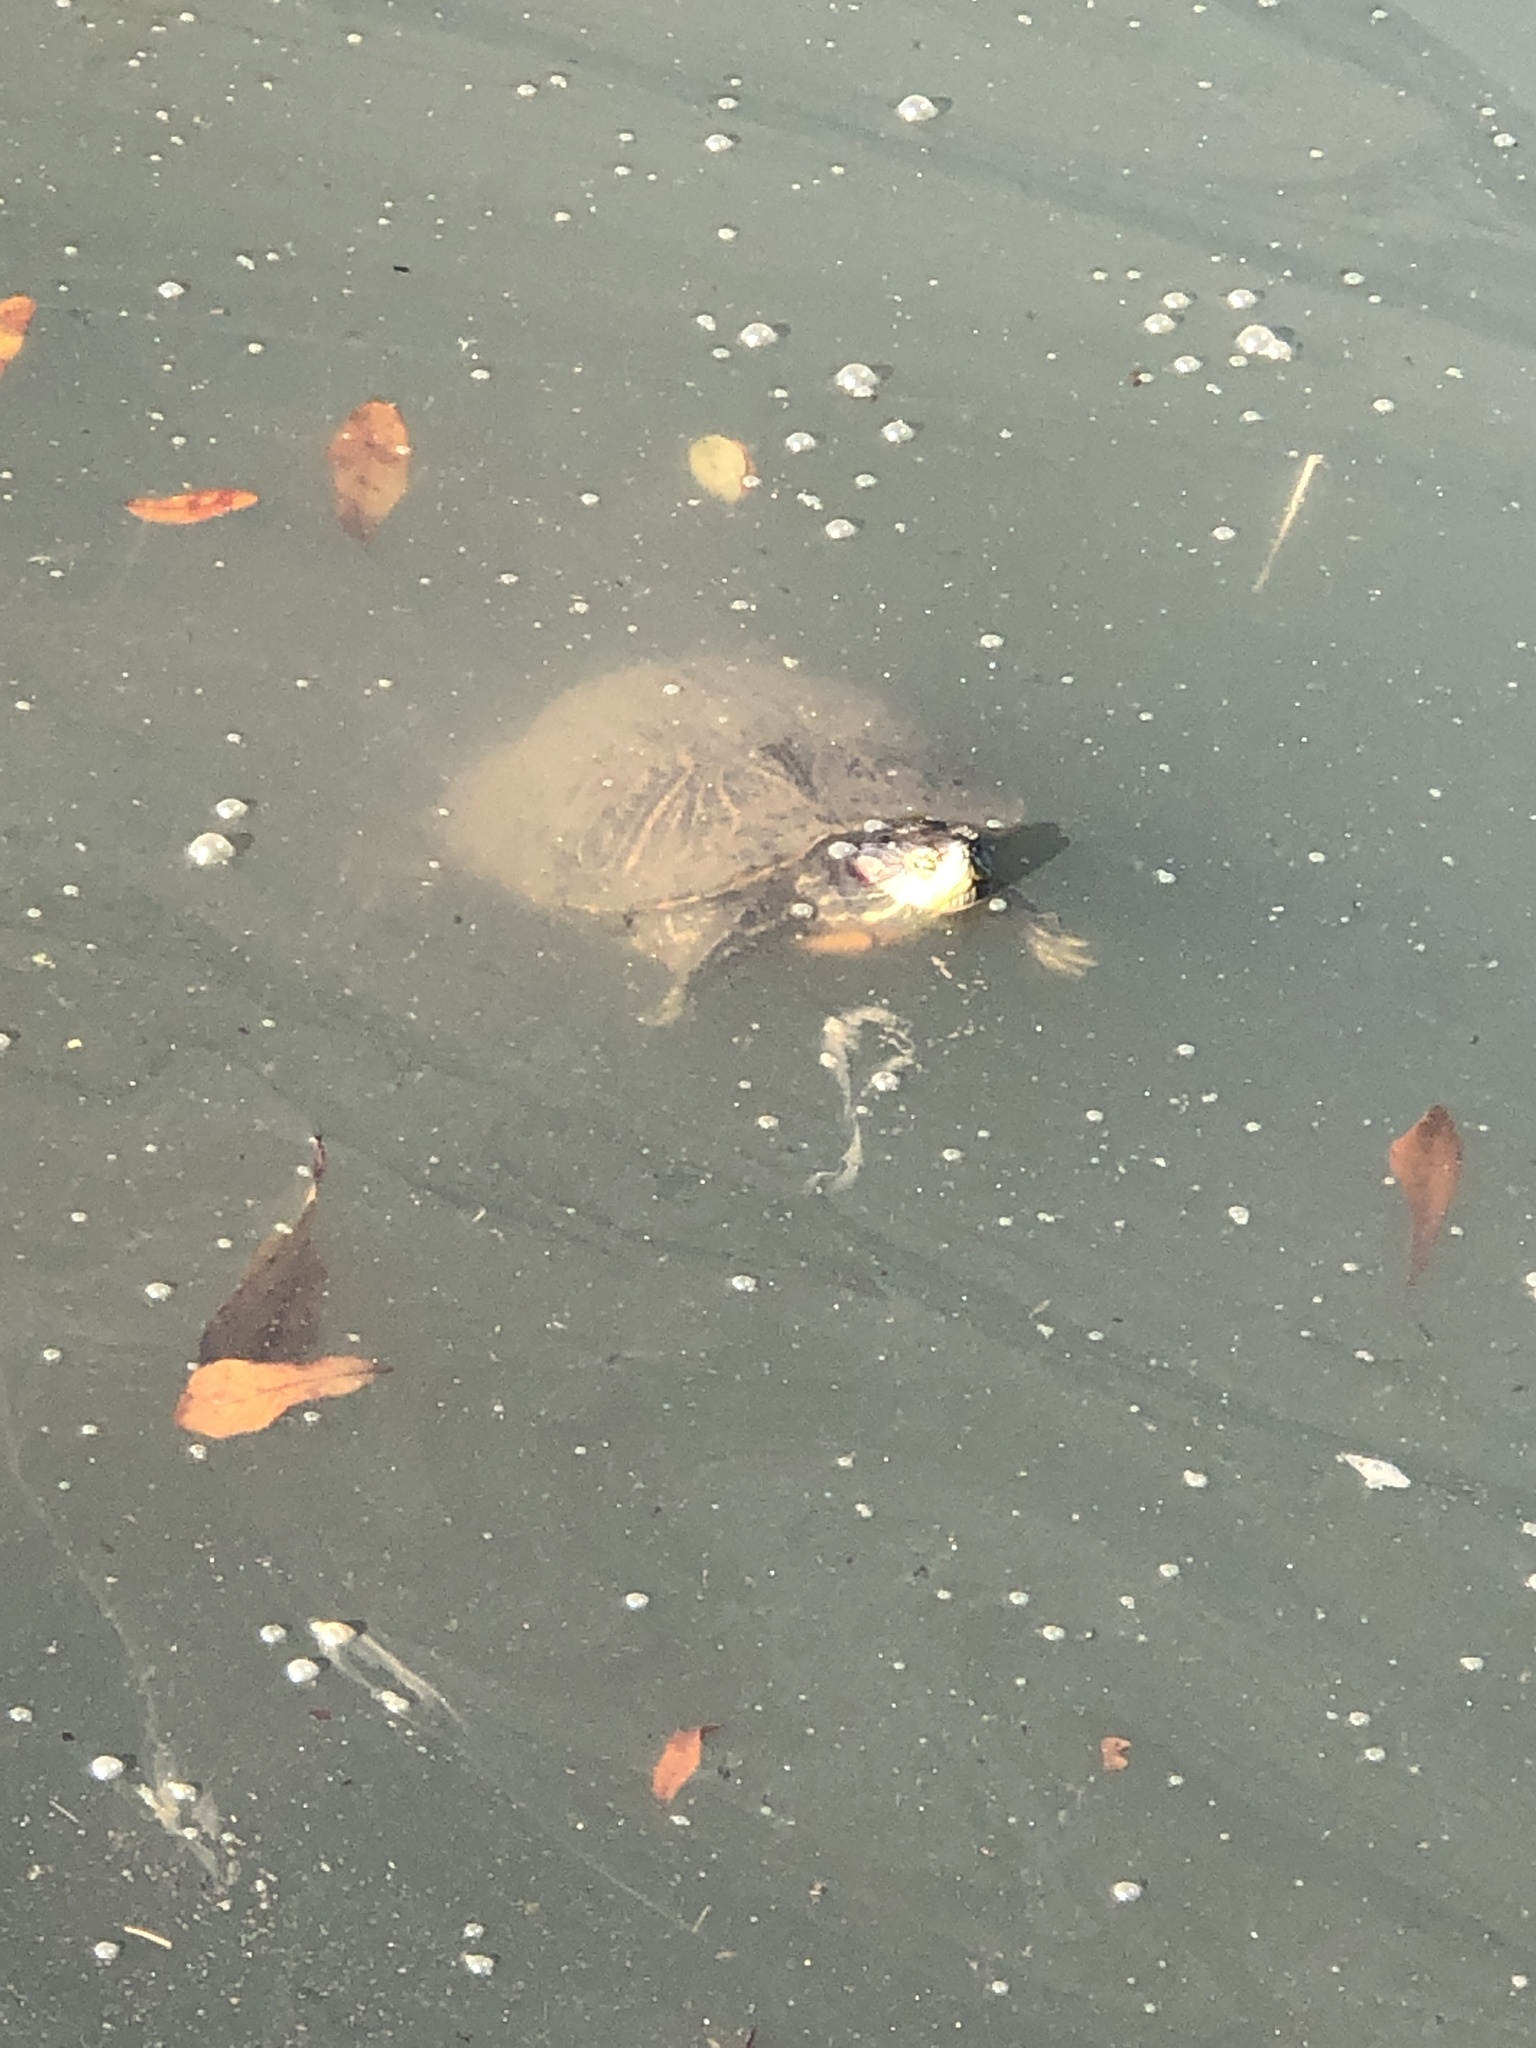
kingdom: Animalia
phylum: Chordata
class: Testudines
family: Emydidae
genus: Trachemys
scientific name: Trachemys scripta
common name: Slider
